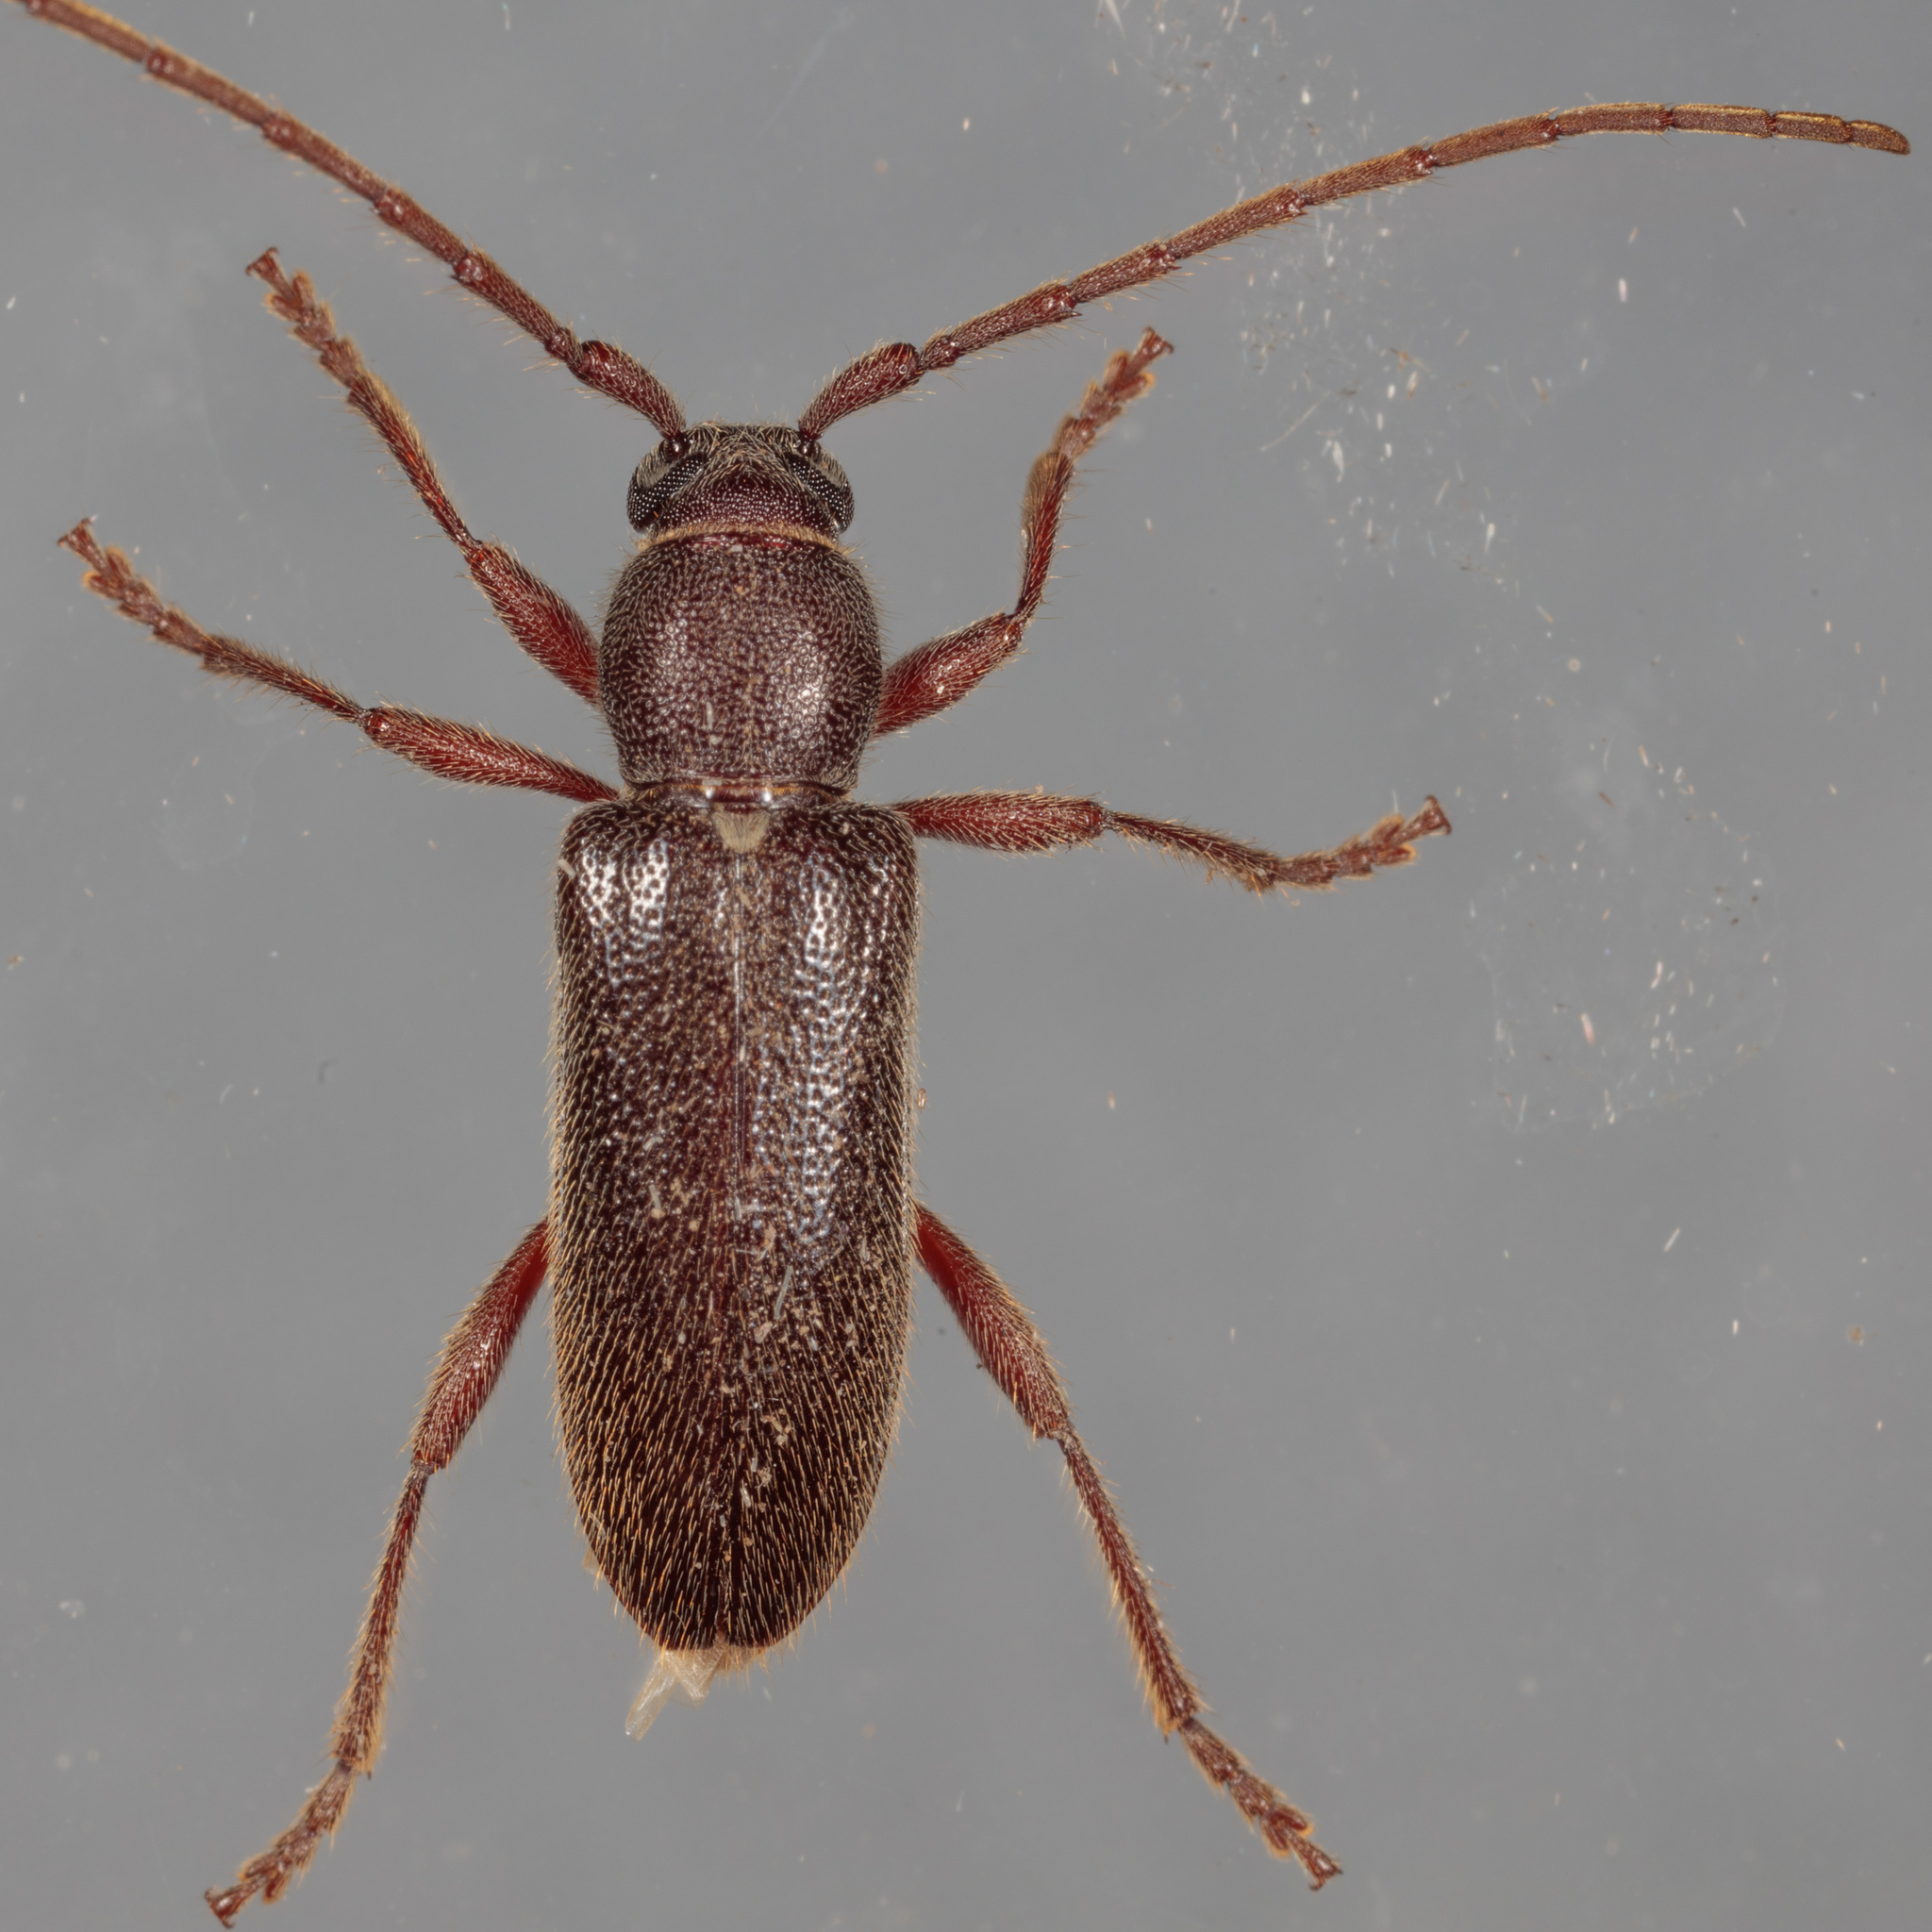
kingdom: Animalia
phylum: Arthropoda
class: Insecta
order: Coleoptera
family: Cerambycidae
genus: Anelaphus
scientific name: Anelaphus moestus
